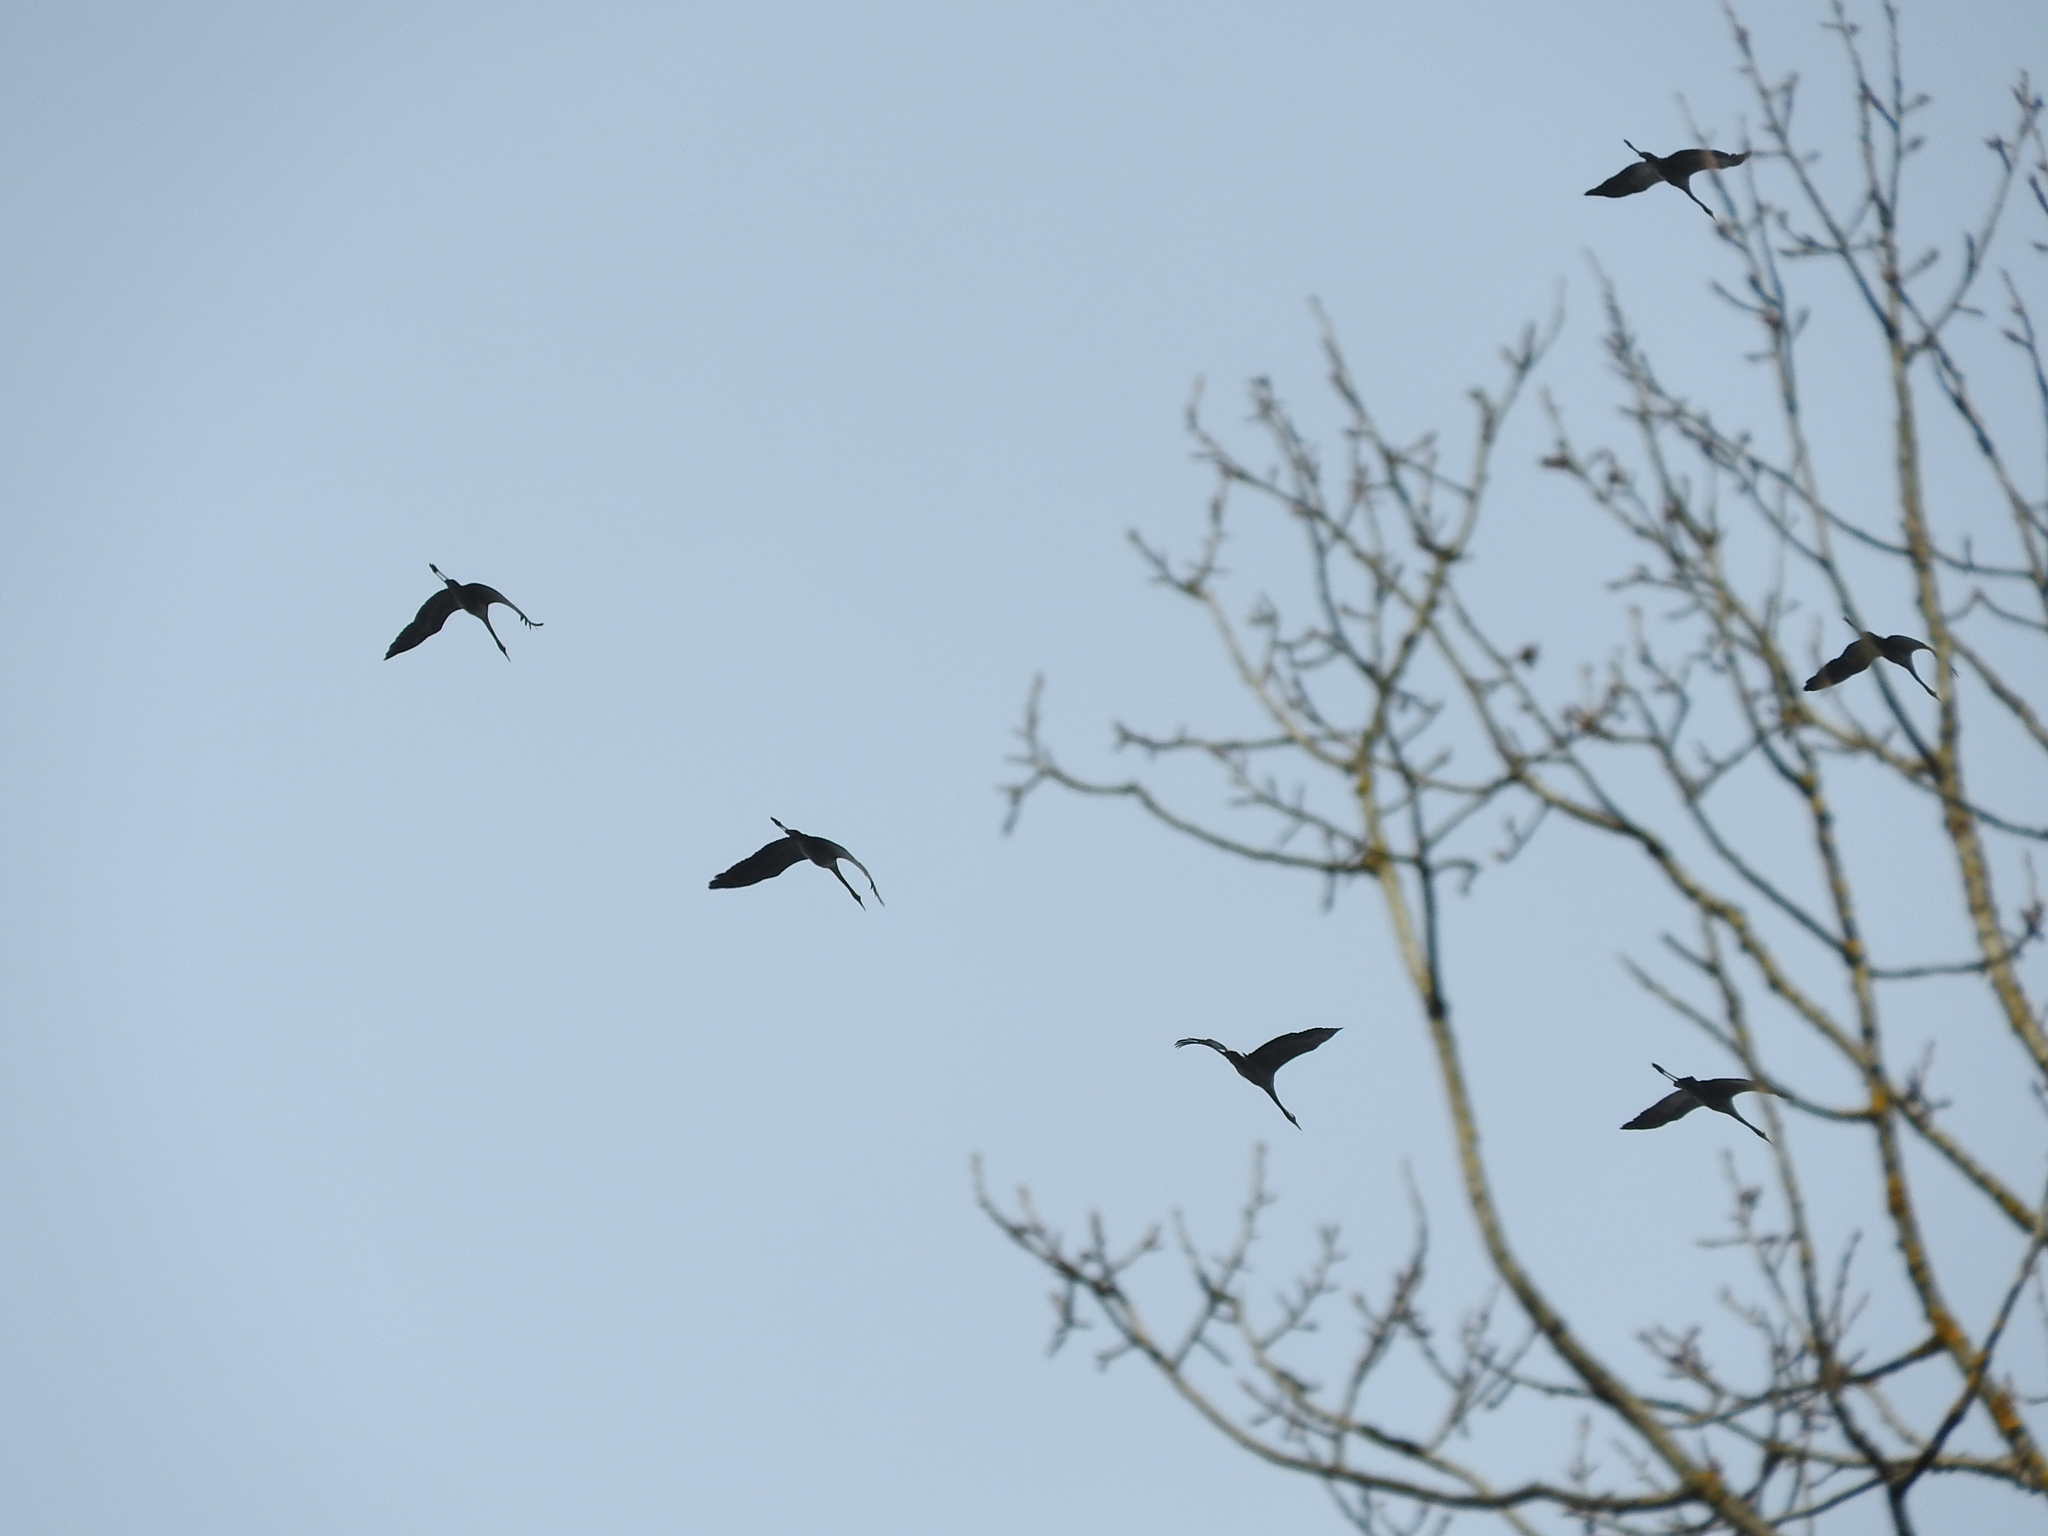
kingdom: Animalia
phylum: Chordata
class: Aves
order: Gruiformes
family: Gruidae
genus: Grus
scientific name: Grus grus
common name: Common crane
